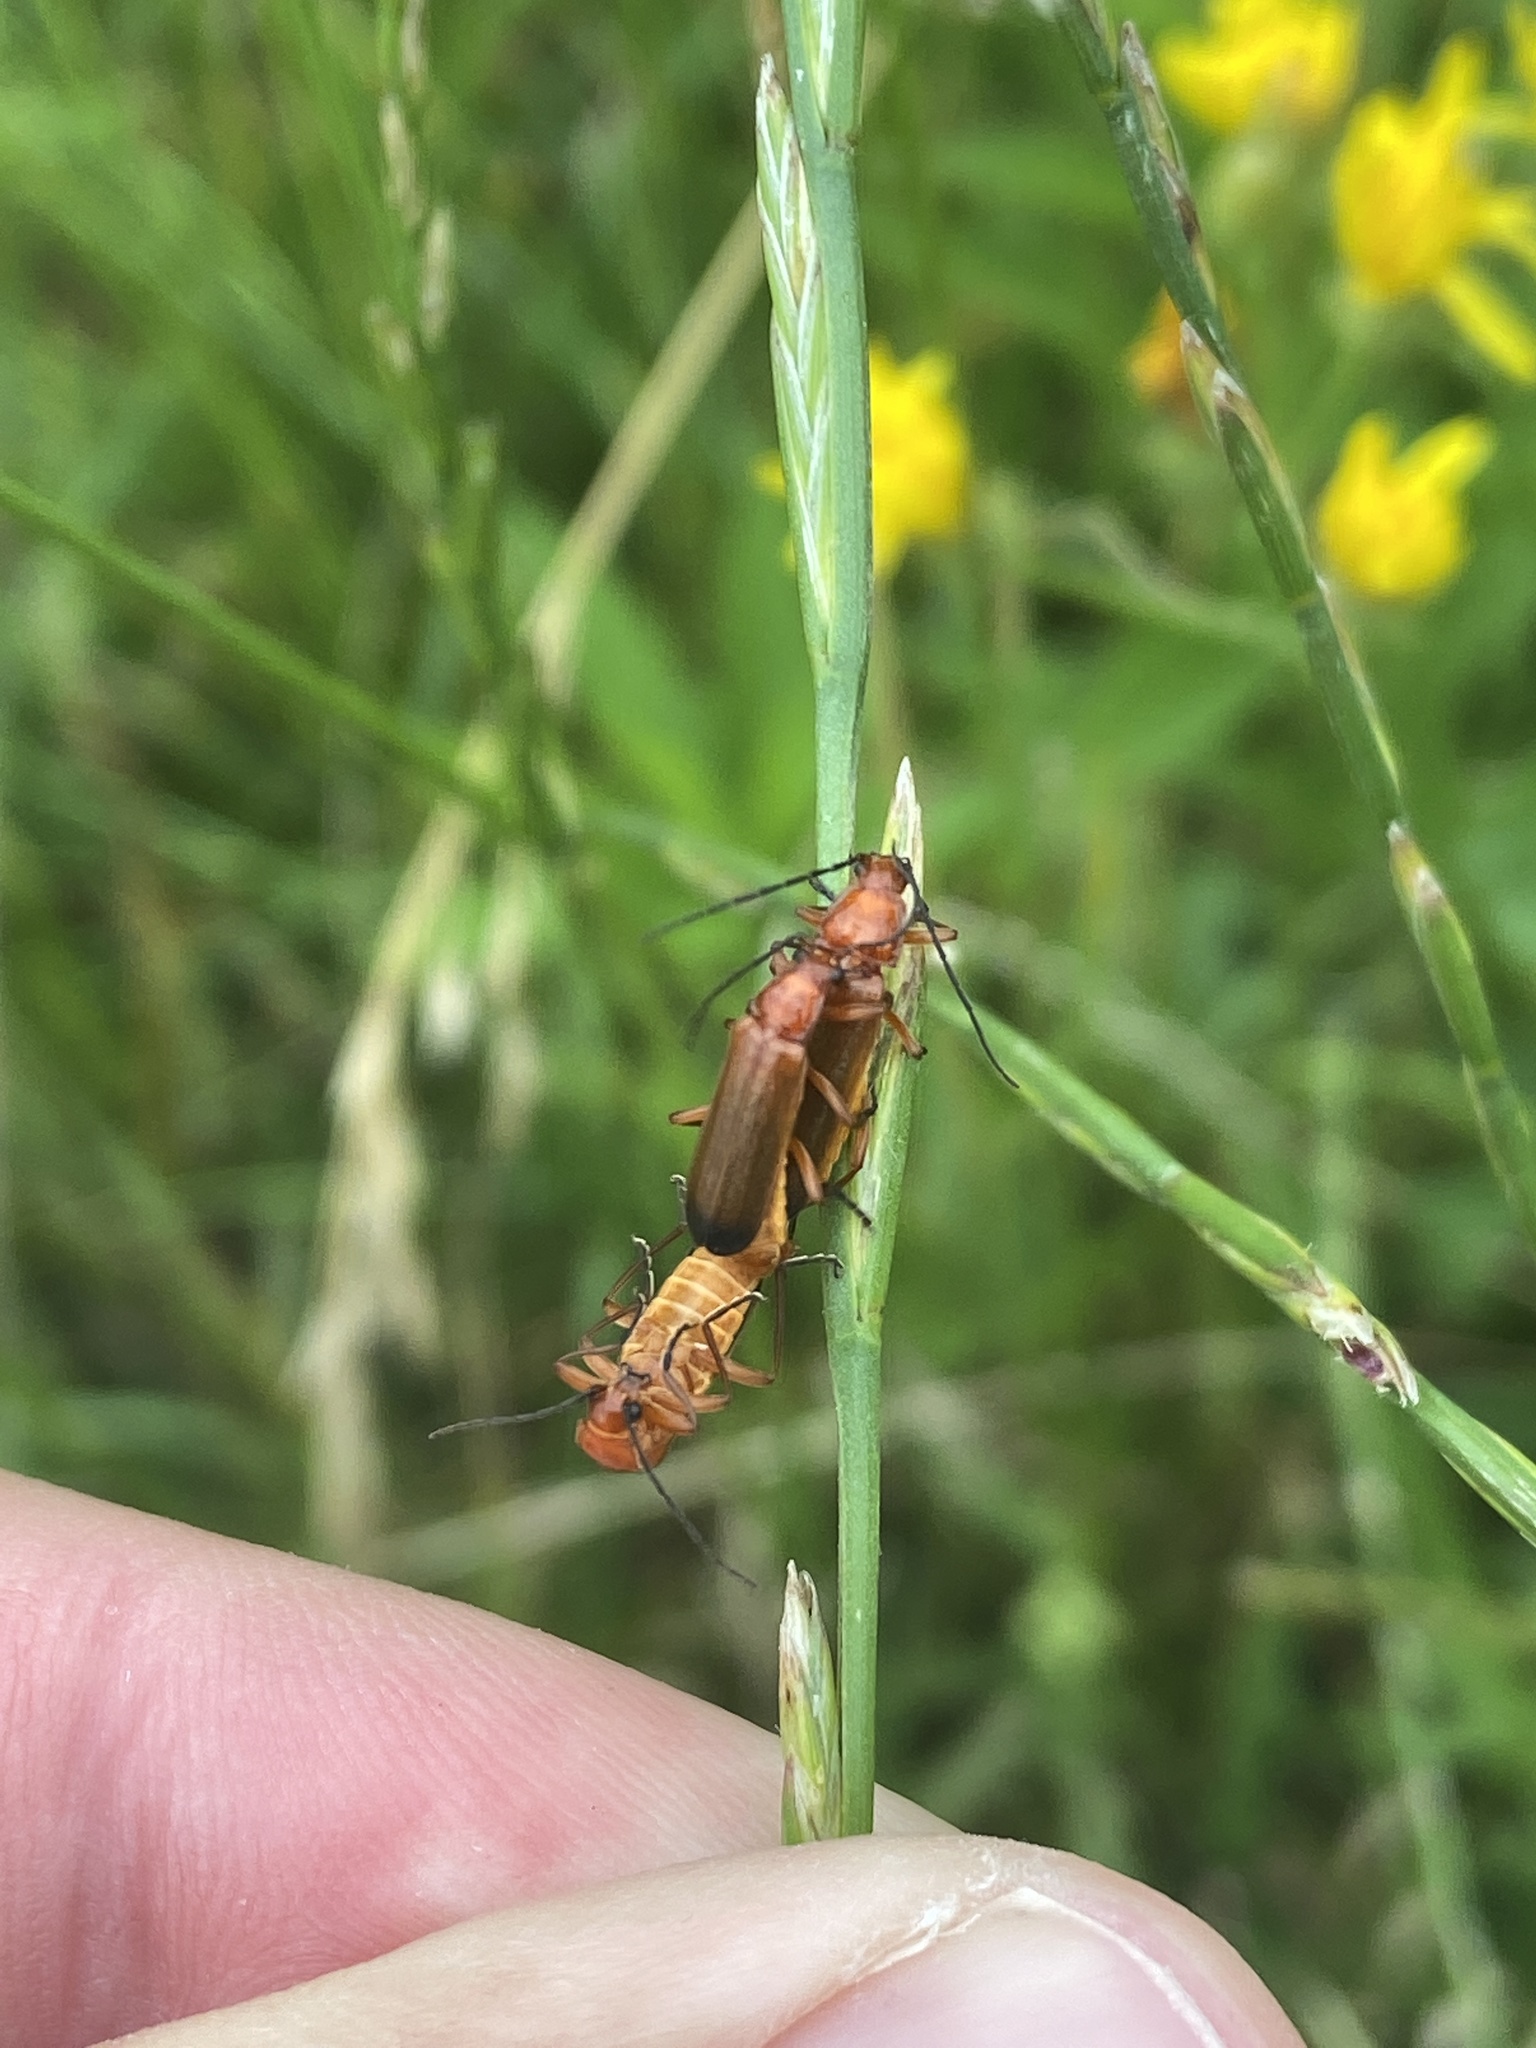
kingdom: Animalia
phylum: Arthropoda
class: Insecta
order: Coleoptera
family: Cantharidae
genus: Rhagonycha
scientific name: Rhagonycha fulva
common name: Common red soldier beetle
